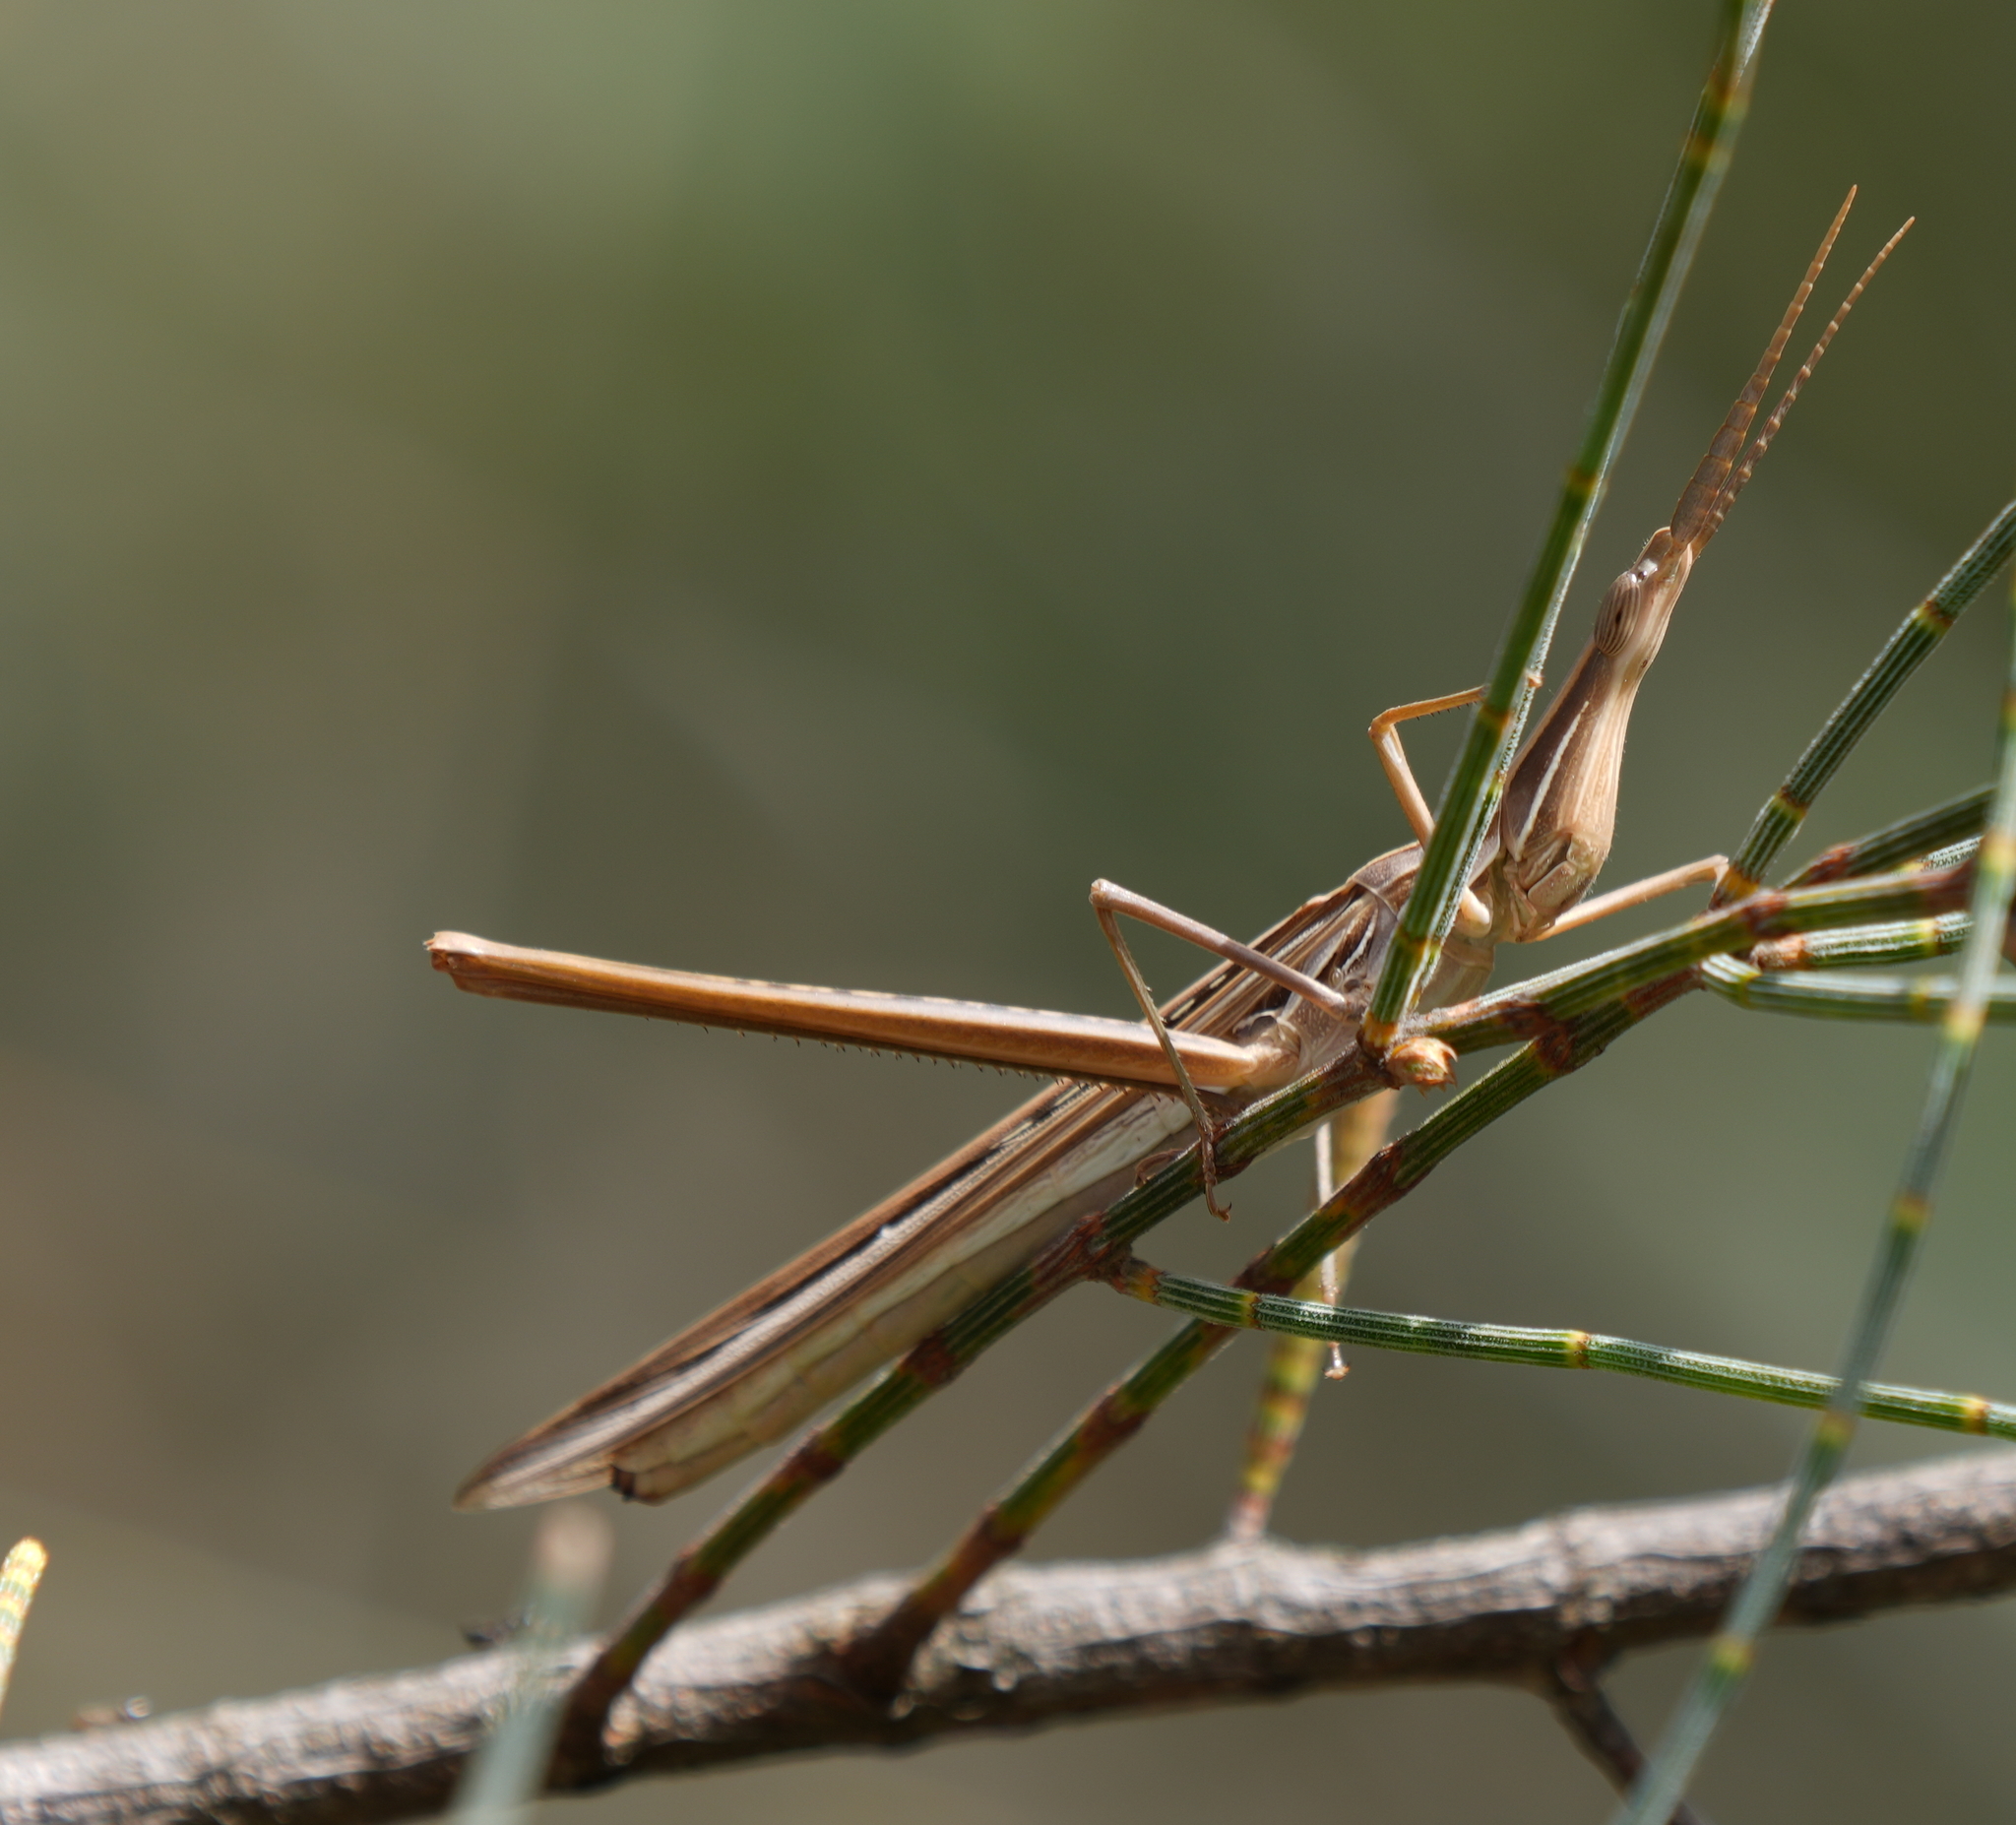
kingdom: Animalia
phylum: Arthropoda
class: Insecta
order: Orthoptera
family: Acrididae
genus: Acrida
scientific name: Acrida conica
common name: Giant green slantface
